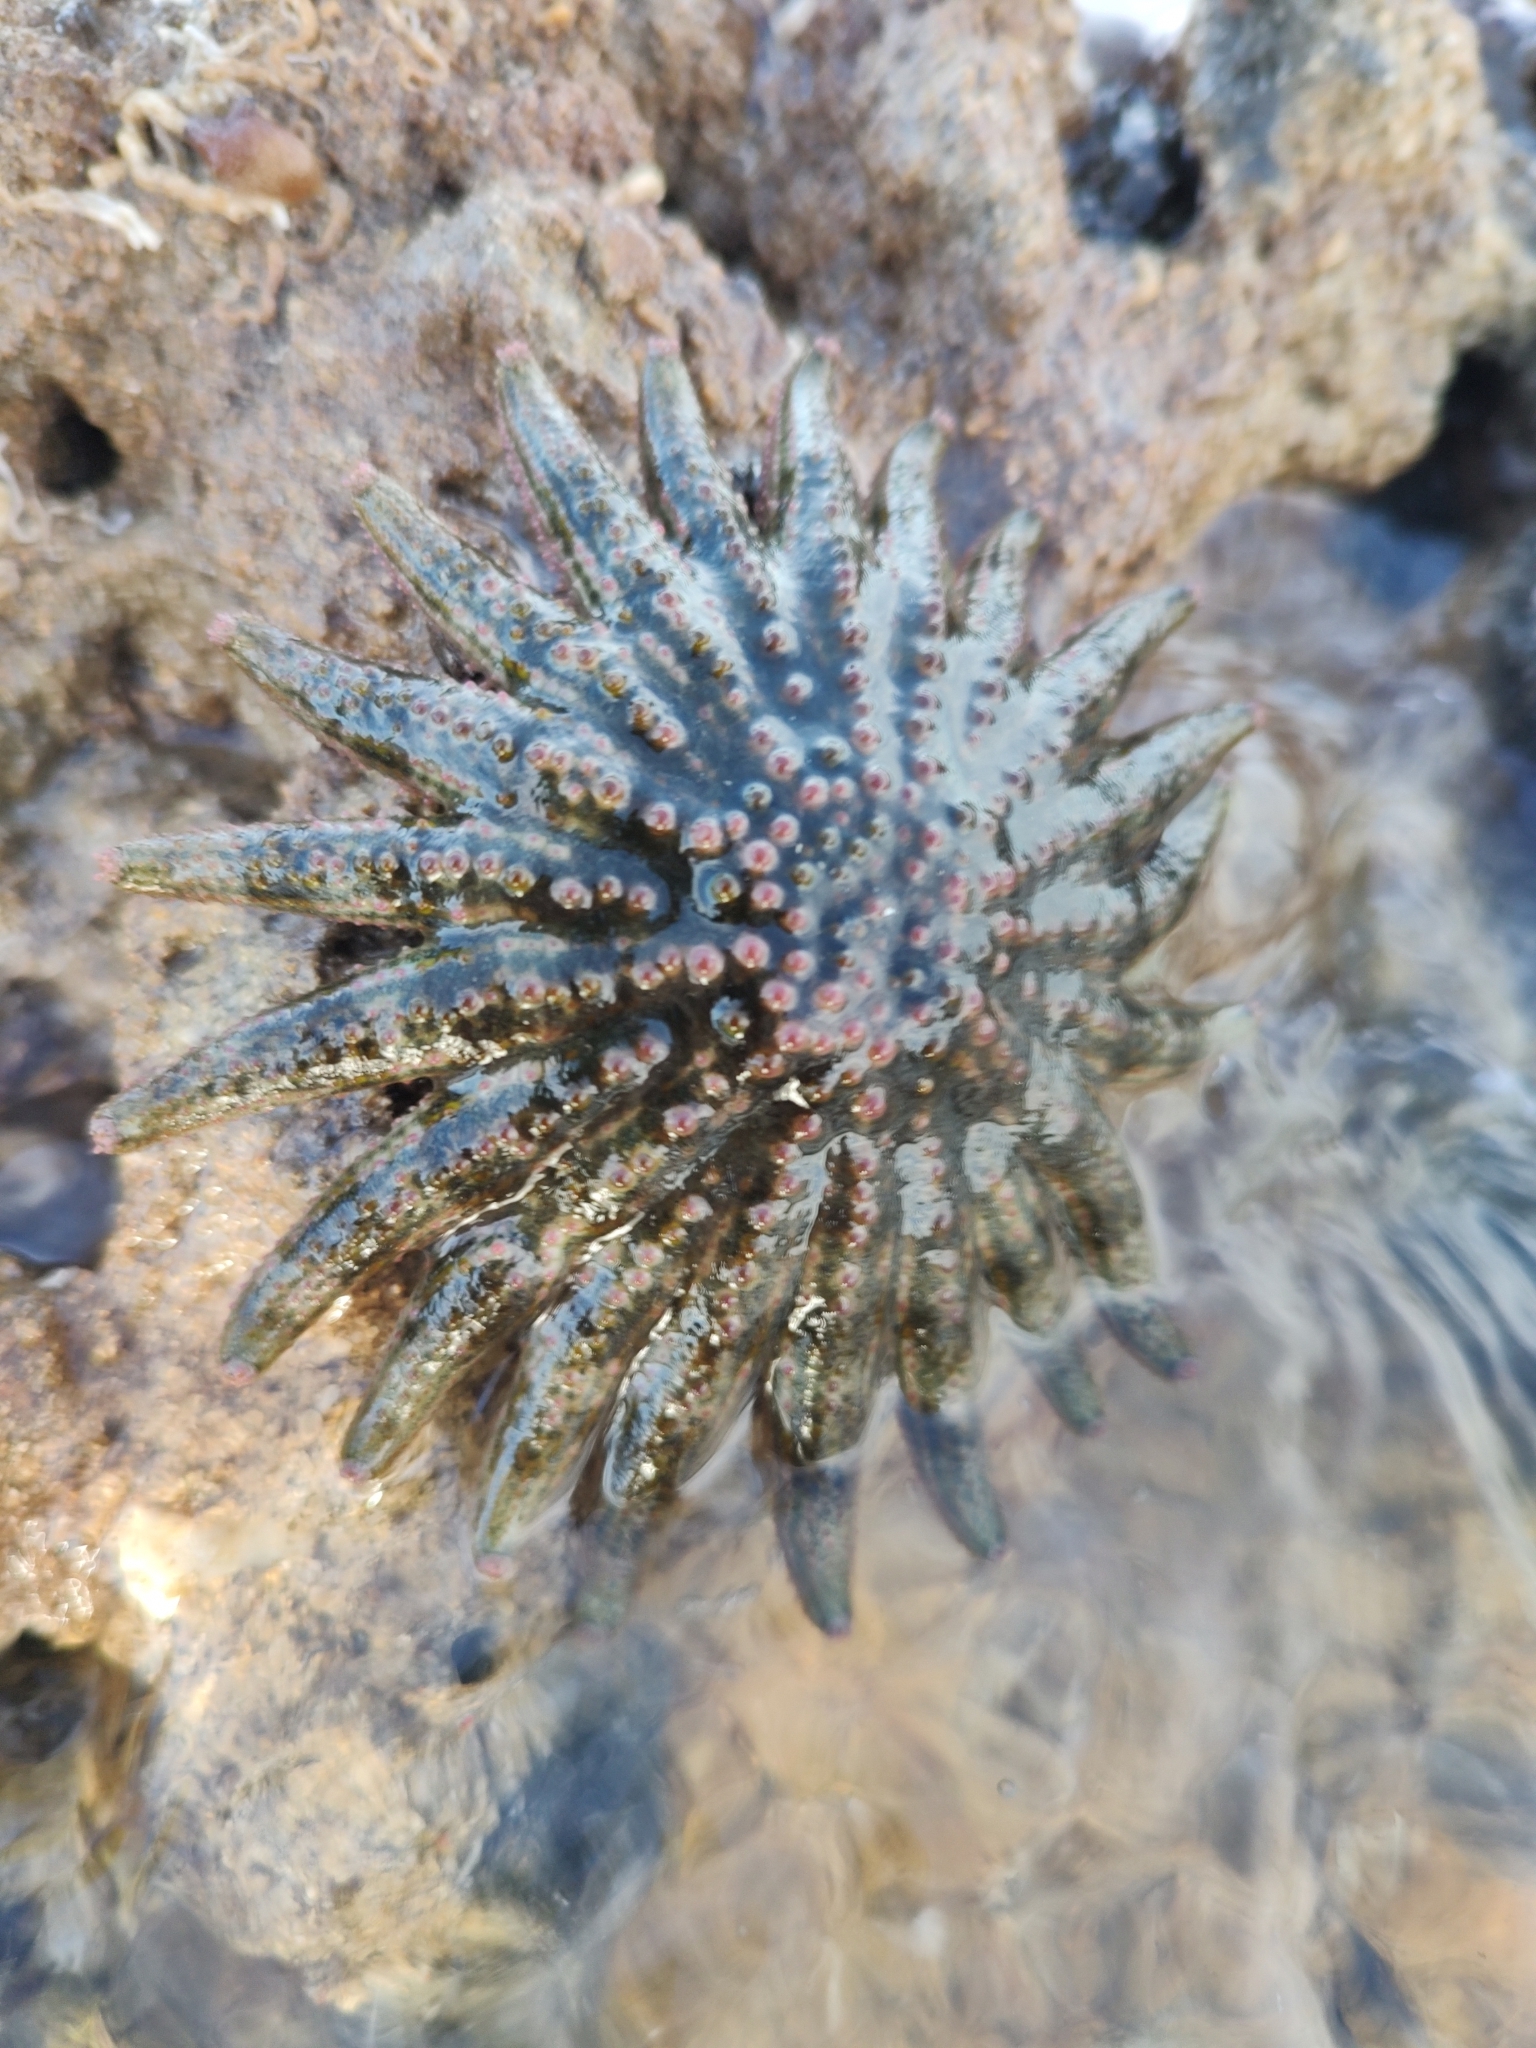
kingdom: Animalia
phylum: Echinodermata
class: Asteroidea
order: Forcipulatida
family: Heliasteridae
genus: Heliaster
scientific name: Heliaster kubiniji
